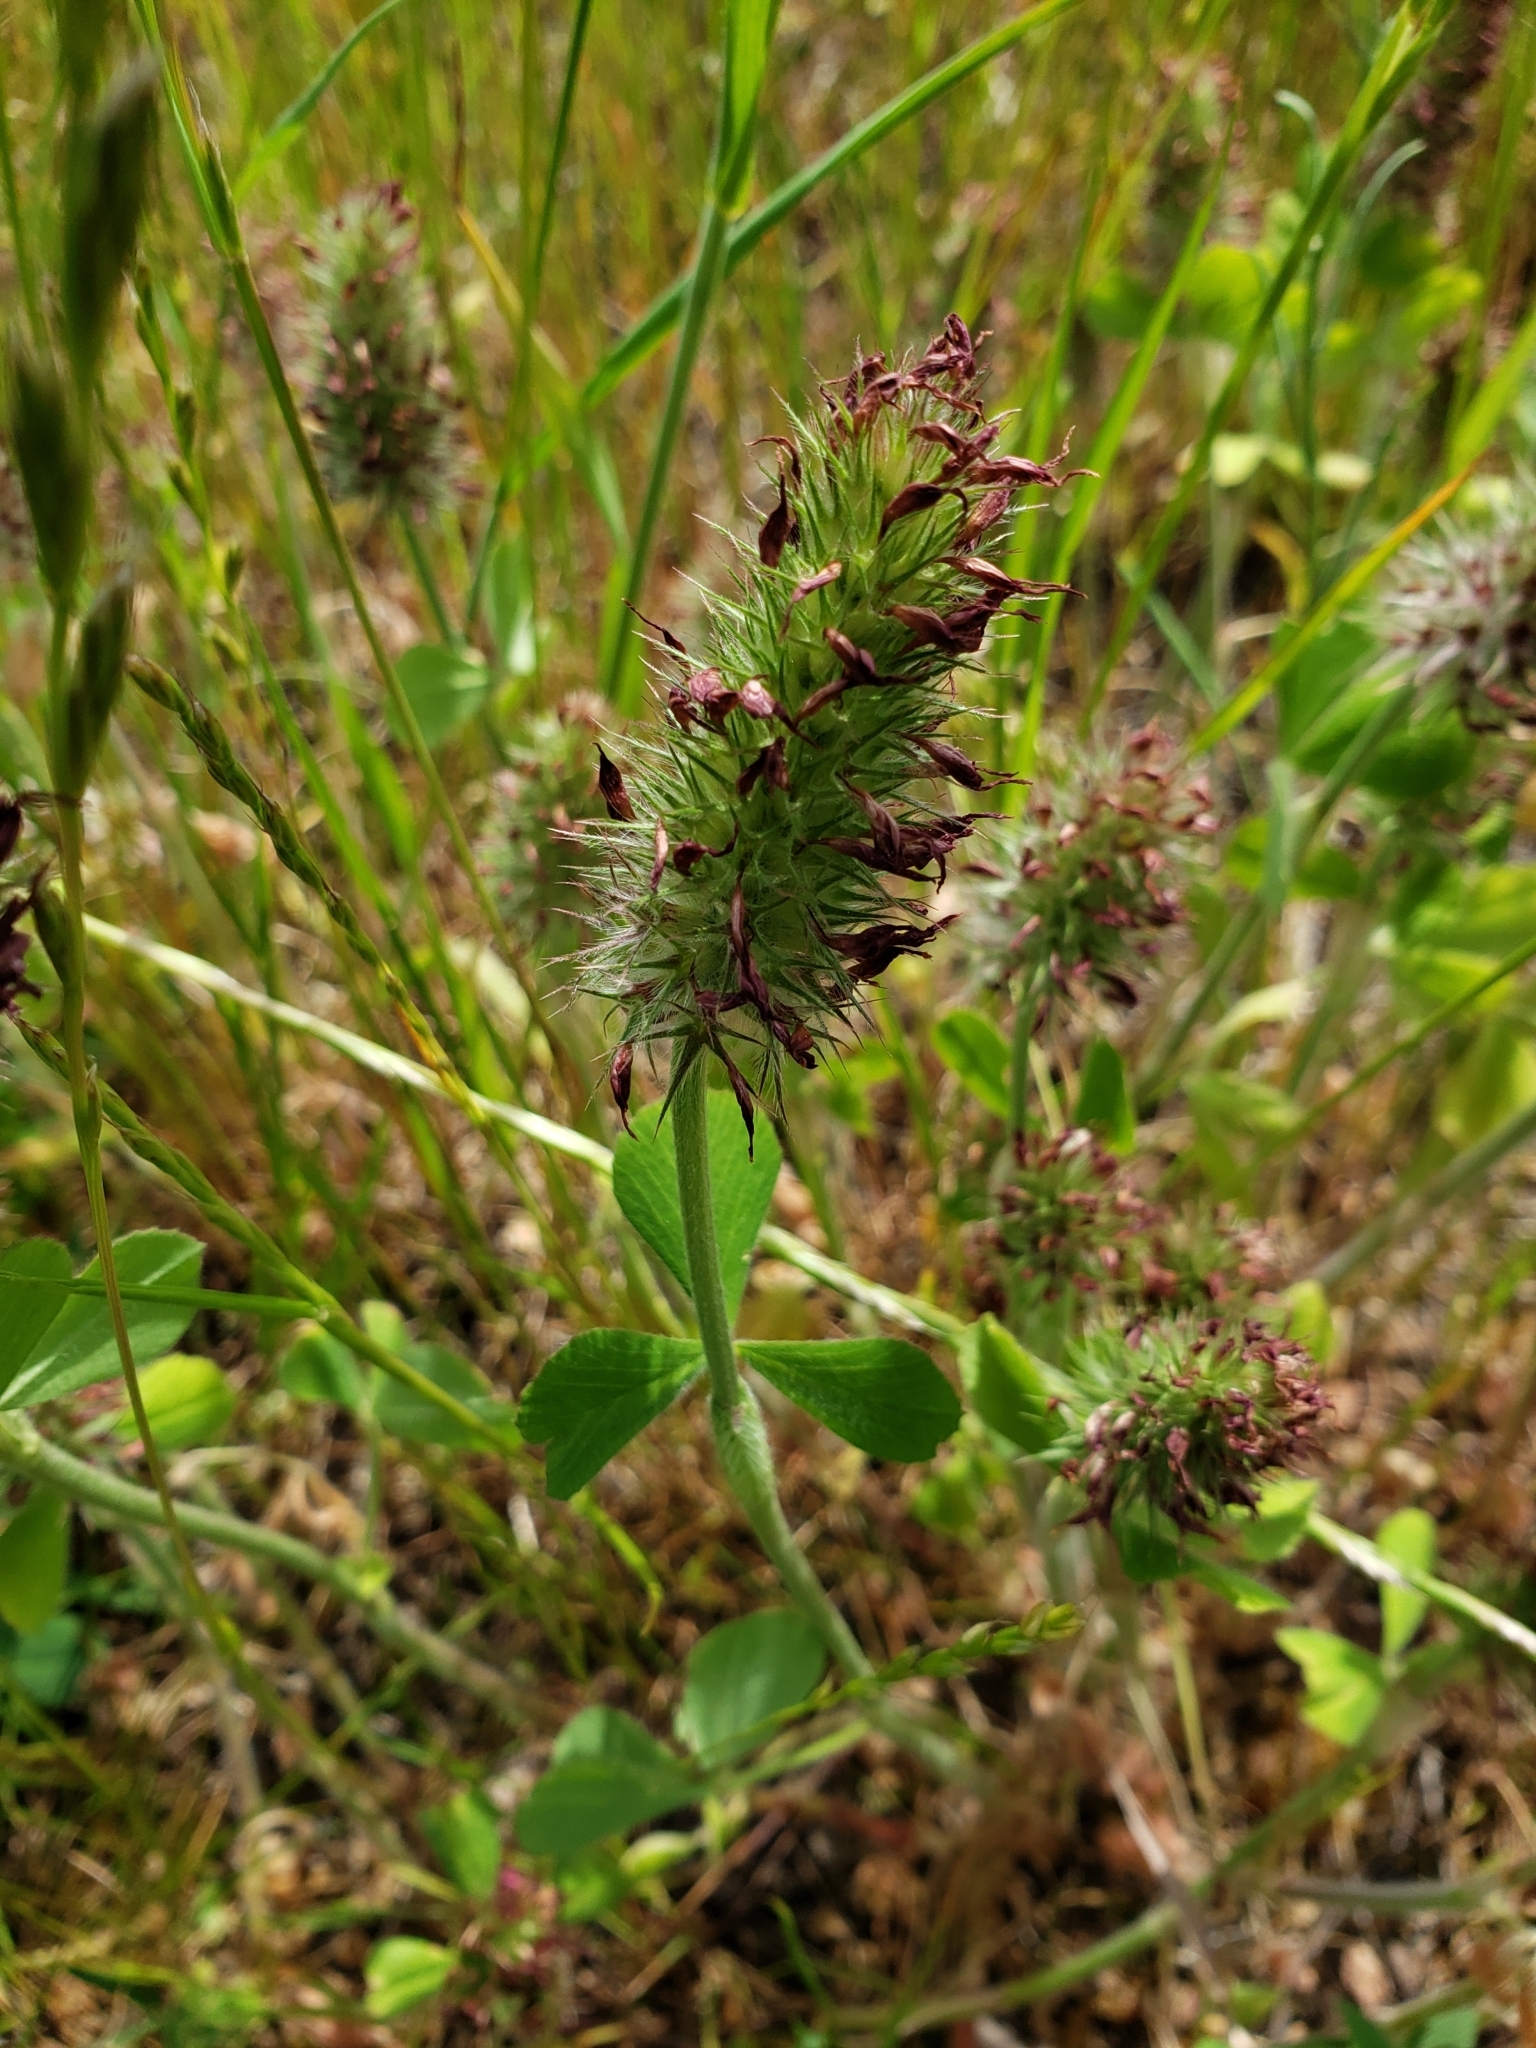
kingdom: Plantae
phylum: Tracheophyta
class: Magnoliopsida
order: Fabales
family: Fabaceae
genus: Trifolium
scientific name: Trifolium incarnatum
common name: Crimson clover
